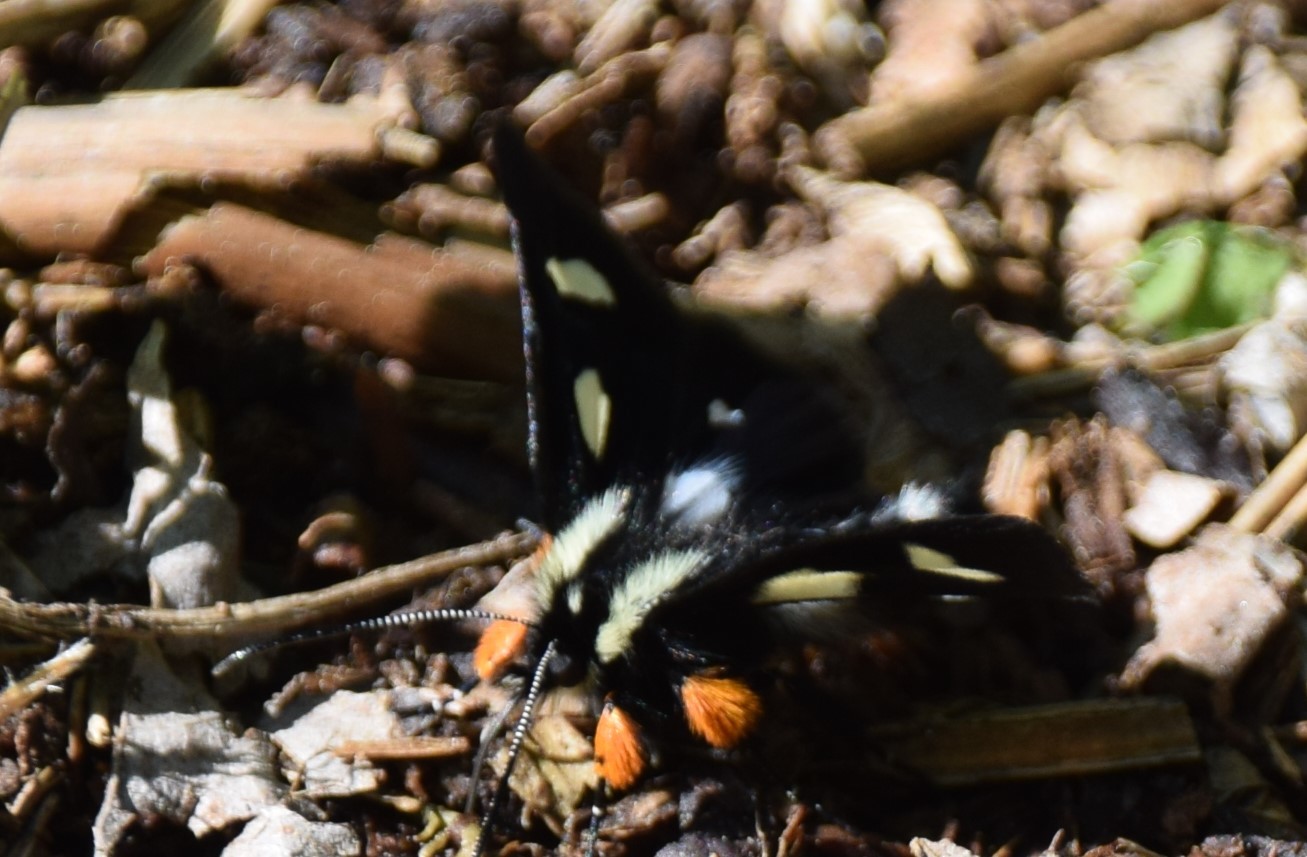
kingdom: Animalia
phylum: Arthropoda
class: Insecta
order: Lepidoptera
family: Noctuidae
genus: Alypia
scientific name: Alypia langtonii
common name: Fireweed caterpillar
